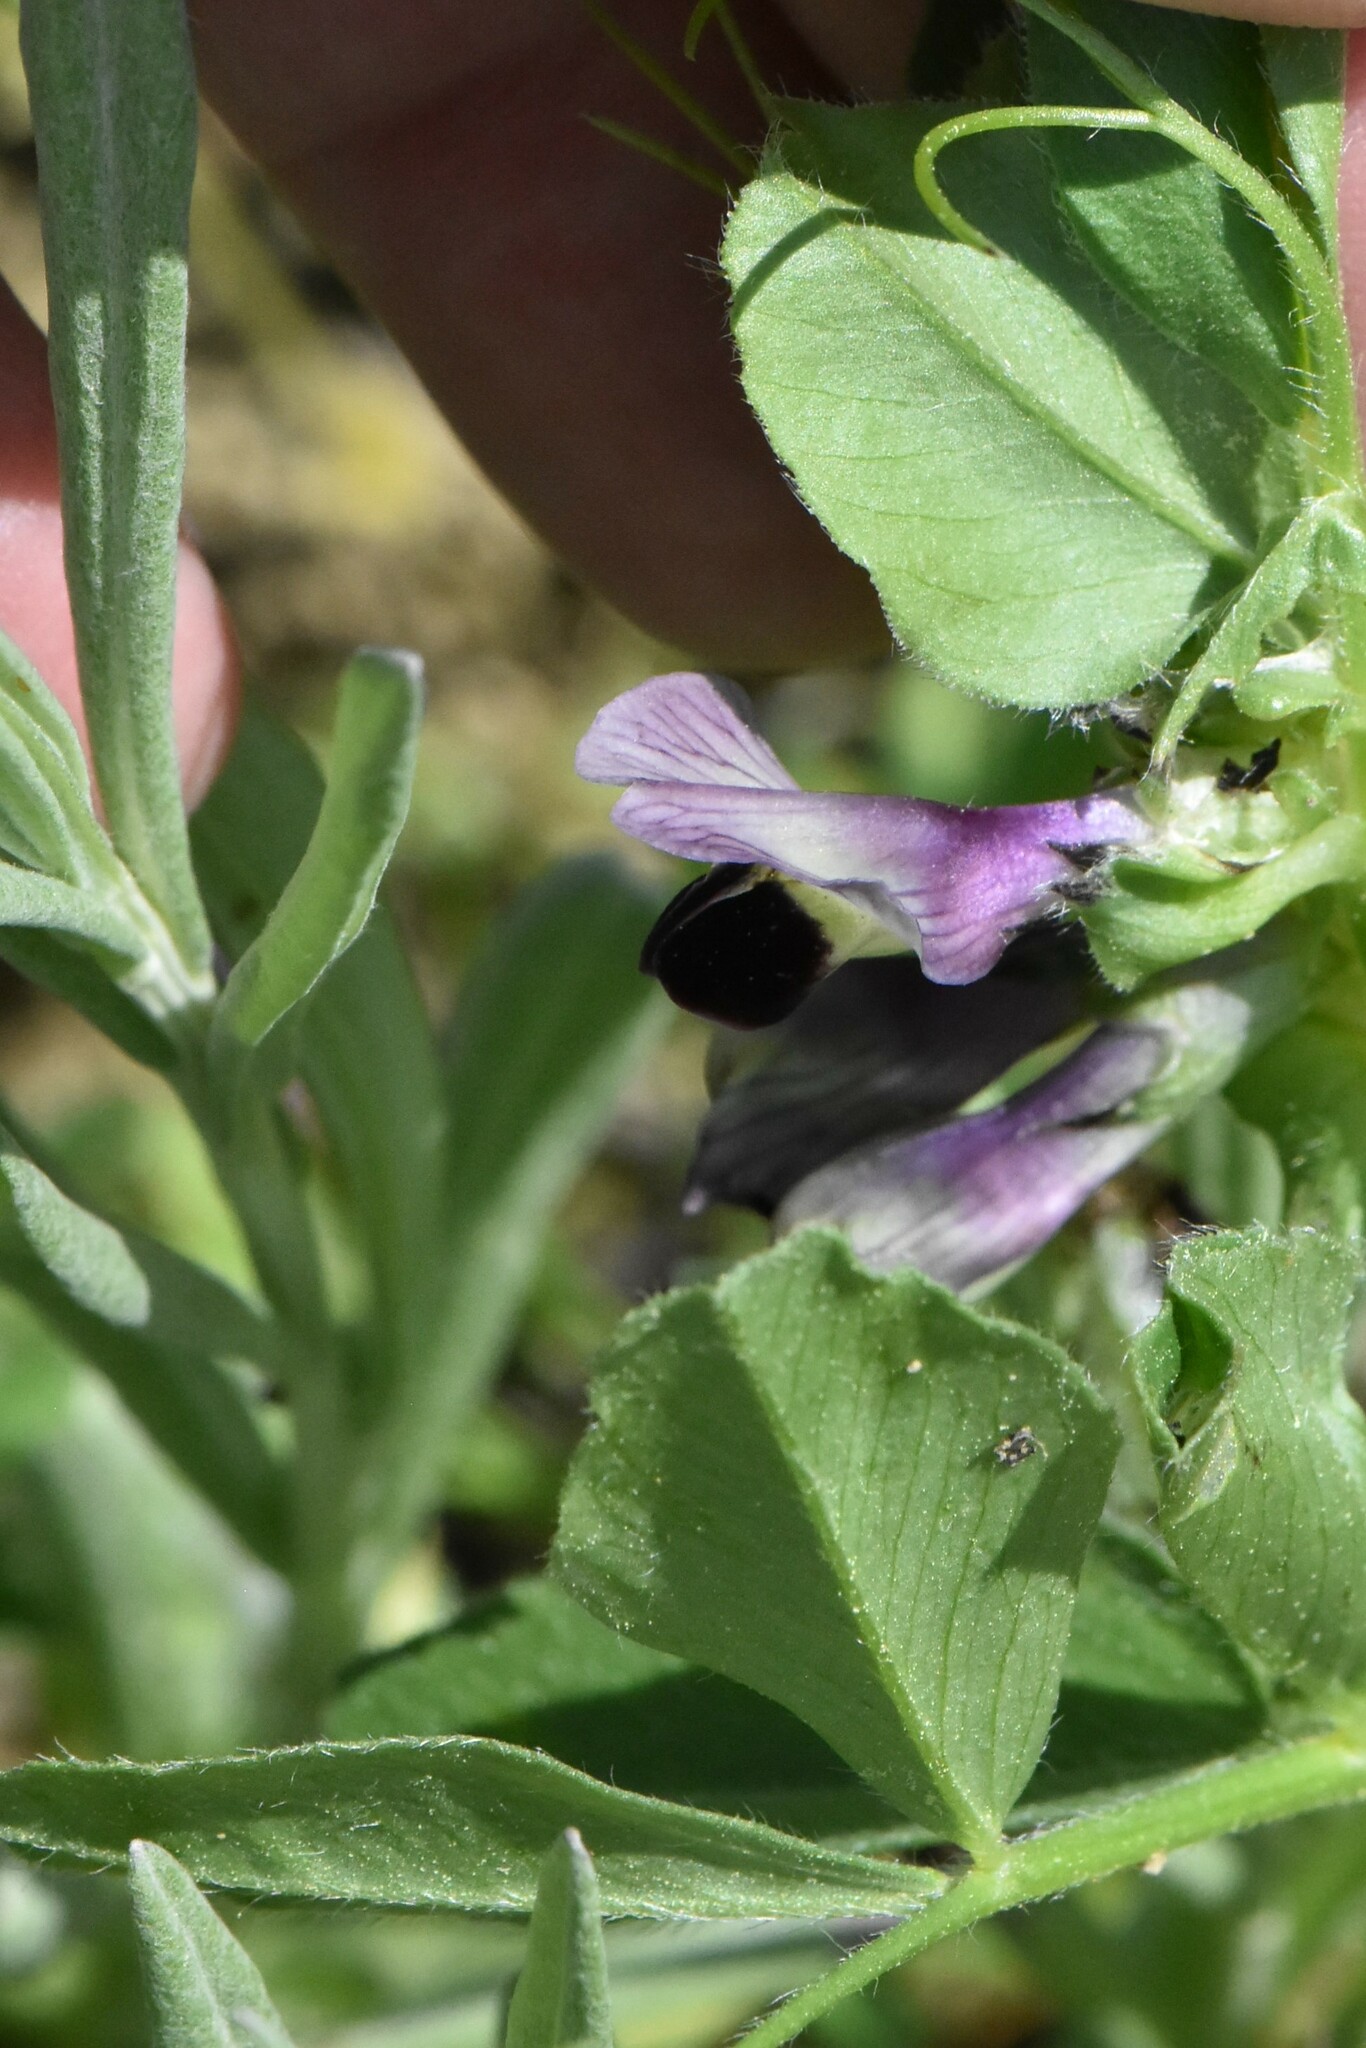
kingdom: Plantae
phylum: Tracheophyta
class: Magnoliopsida
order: Fabales
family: Fabaceae
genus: Vicia
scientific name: Vicia narbonensis
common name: Narbonne vetch
